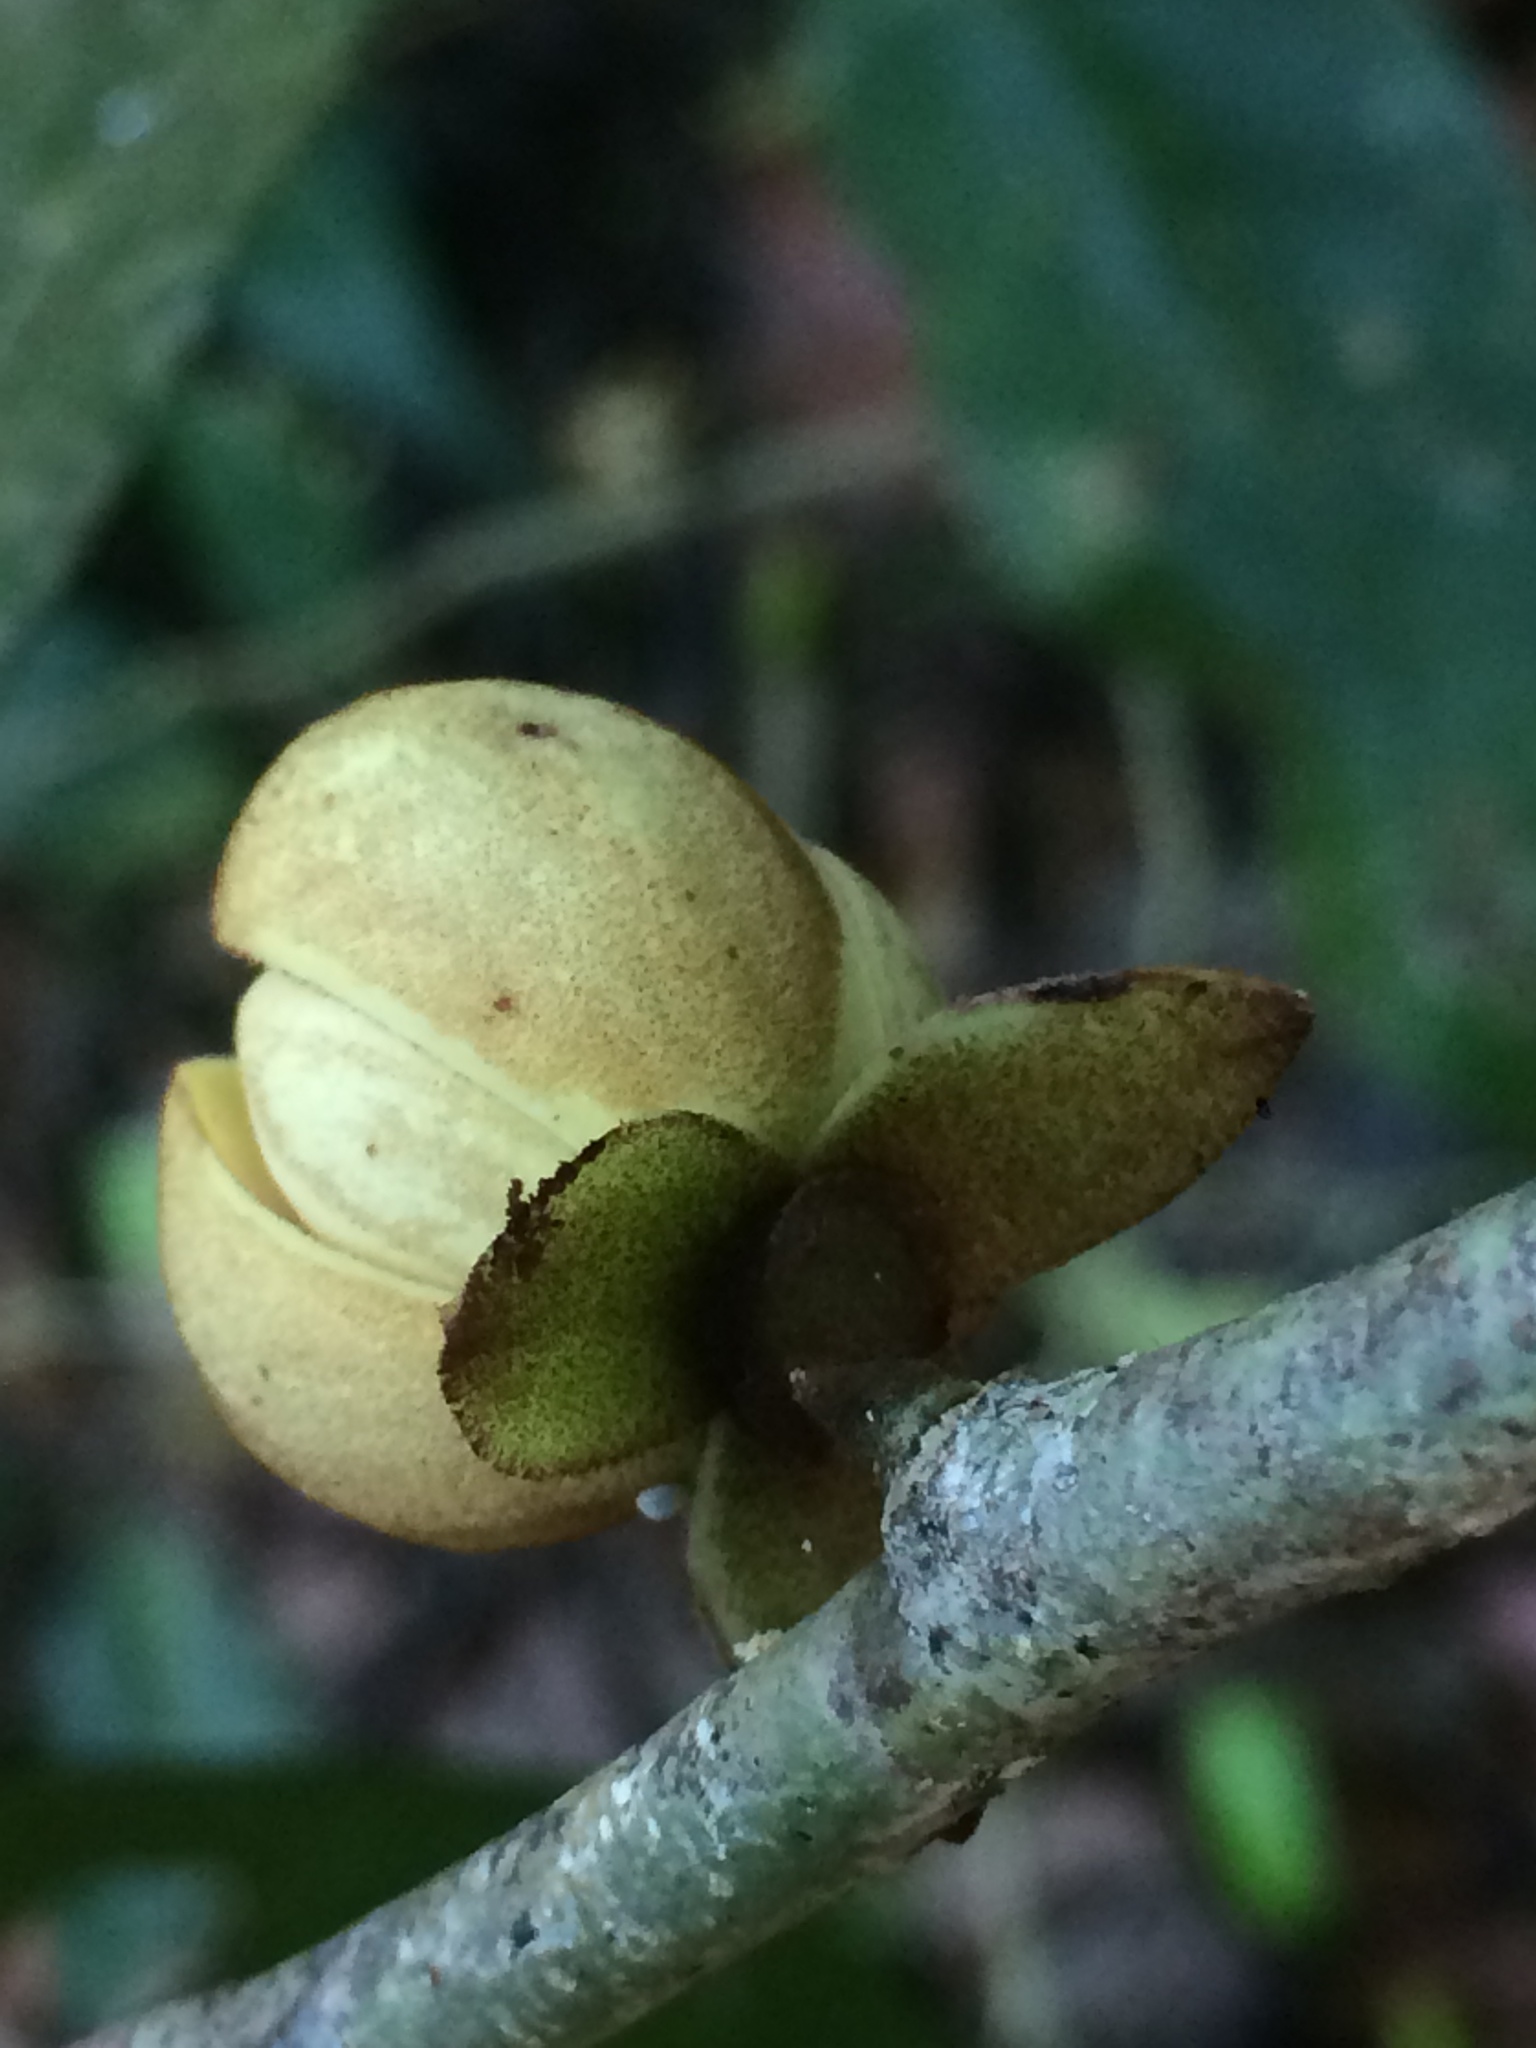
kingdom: Plantae
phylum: Tracheophyta
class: Magnoliopsida
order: Magnoliales
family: Annonaceae
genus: Anaxagorea
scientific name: Anaxagorea dolichocarpa
